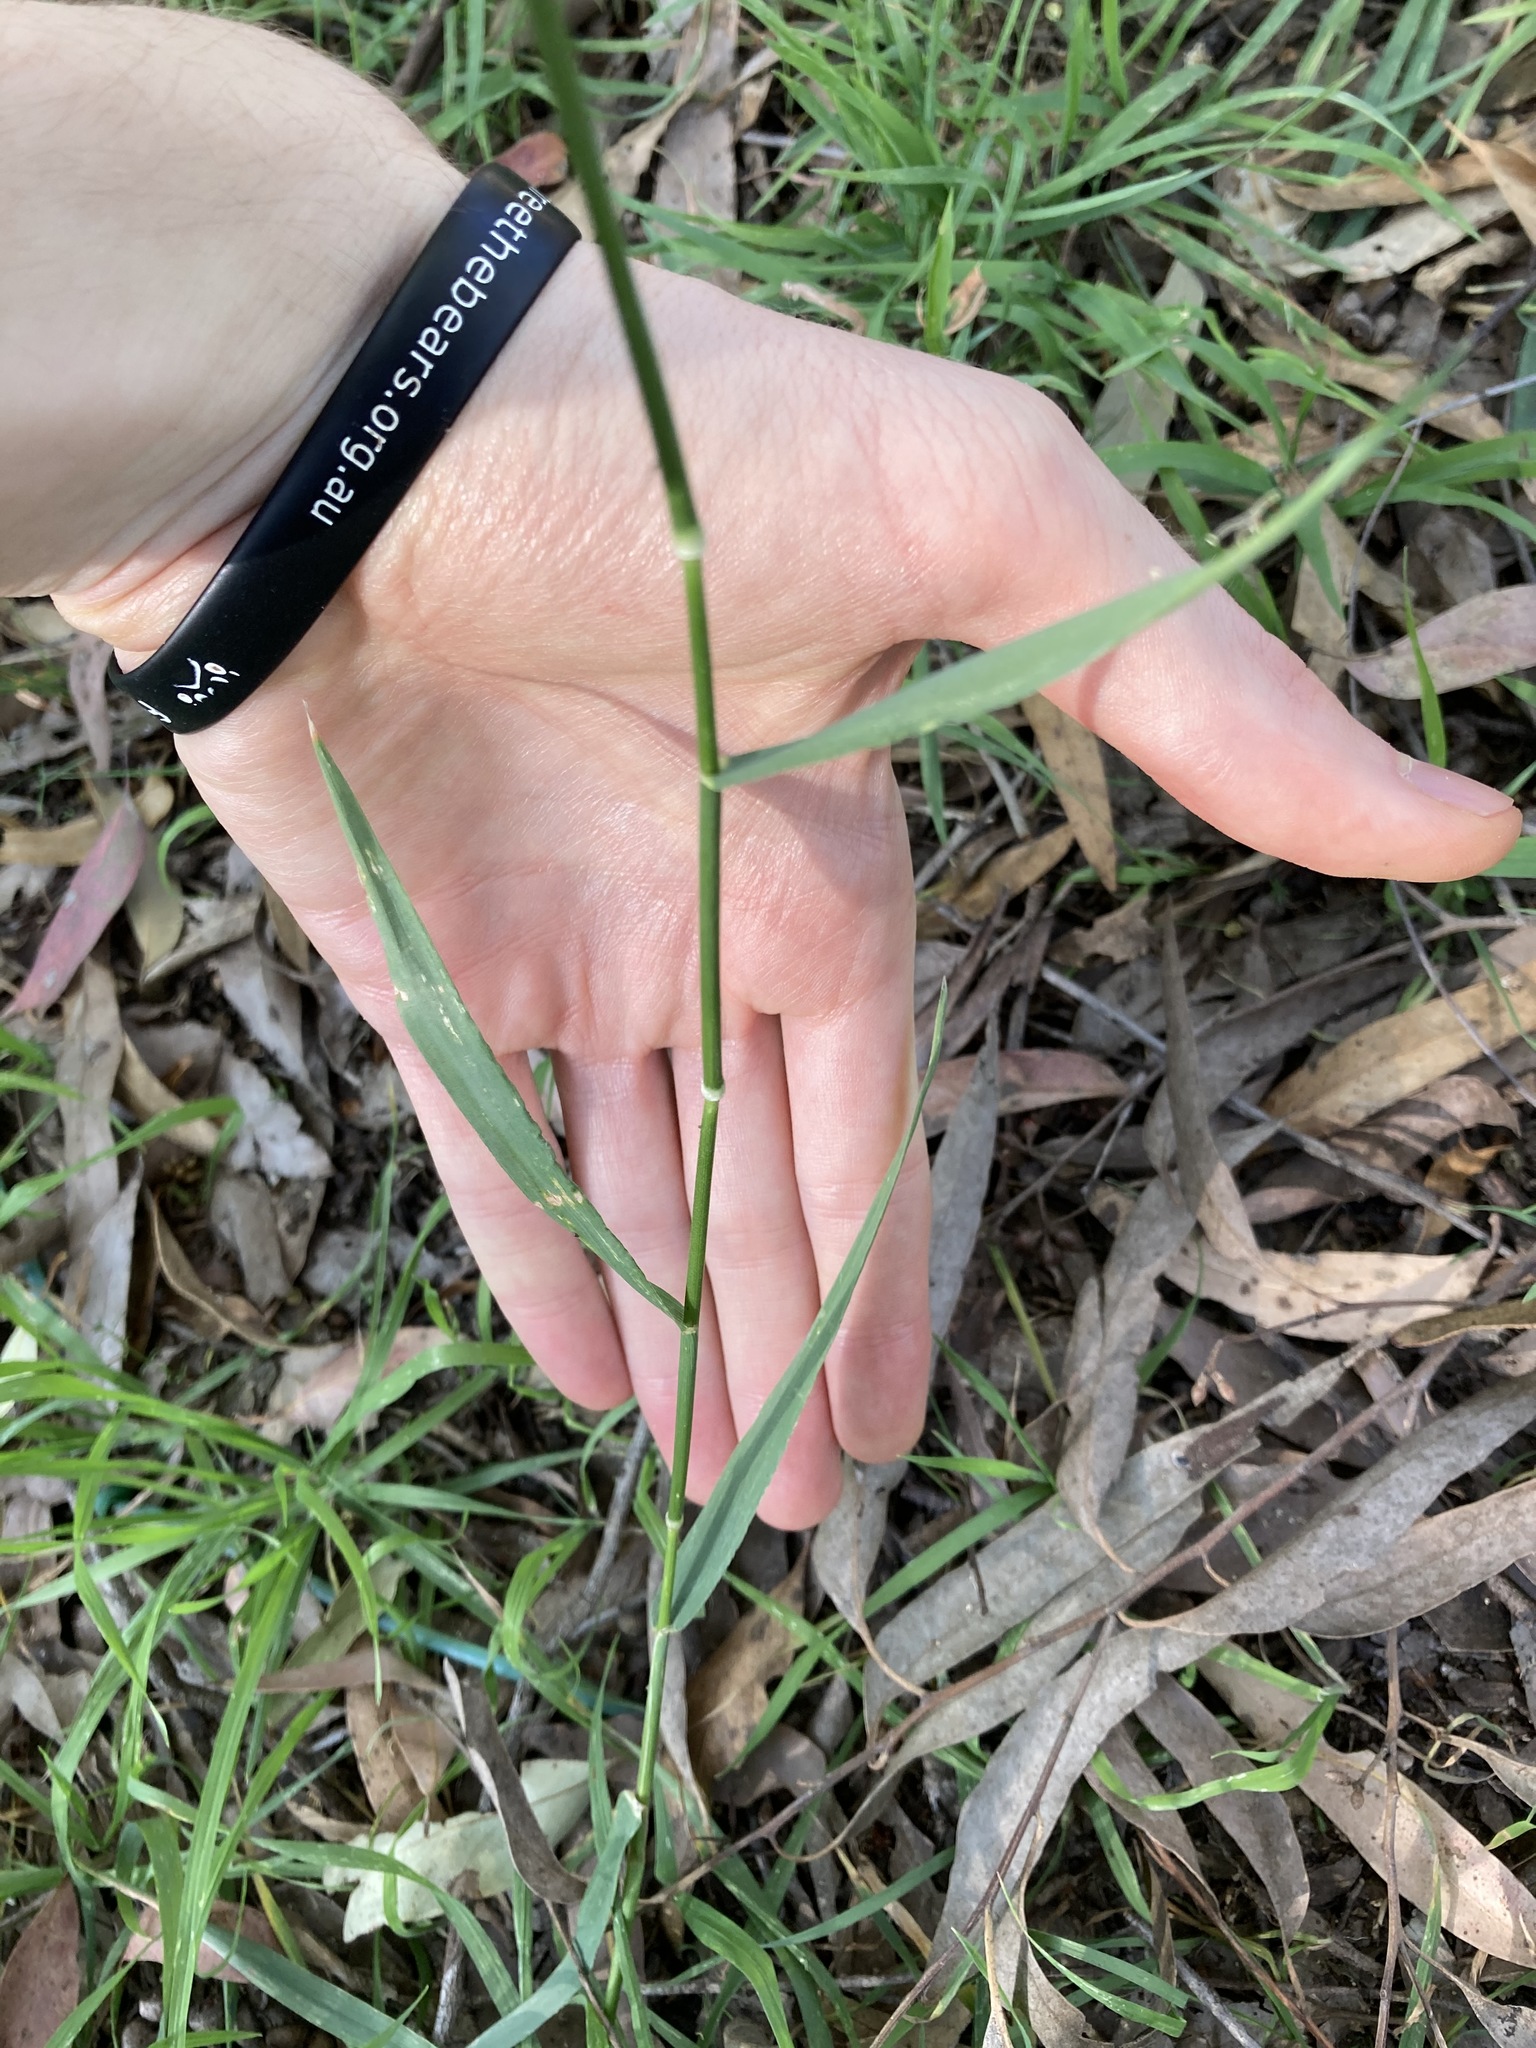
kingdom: Plantae
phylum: Tracheophyta
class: Liliopsida
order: Poales
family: Poaceae
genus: Echinopogon
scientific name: Echinopogon ovatus
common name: Hedgehog-grass
